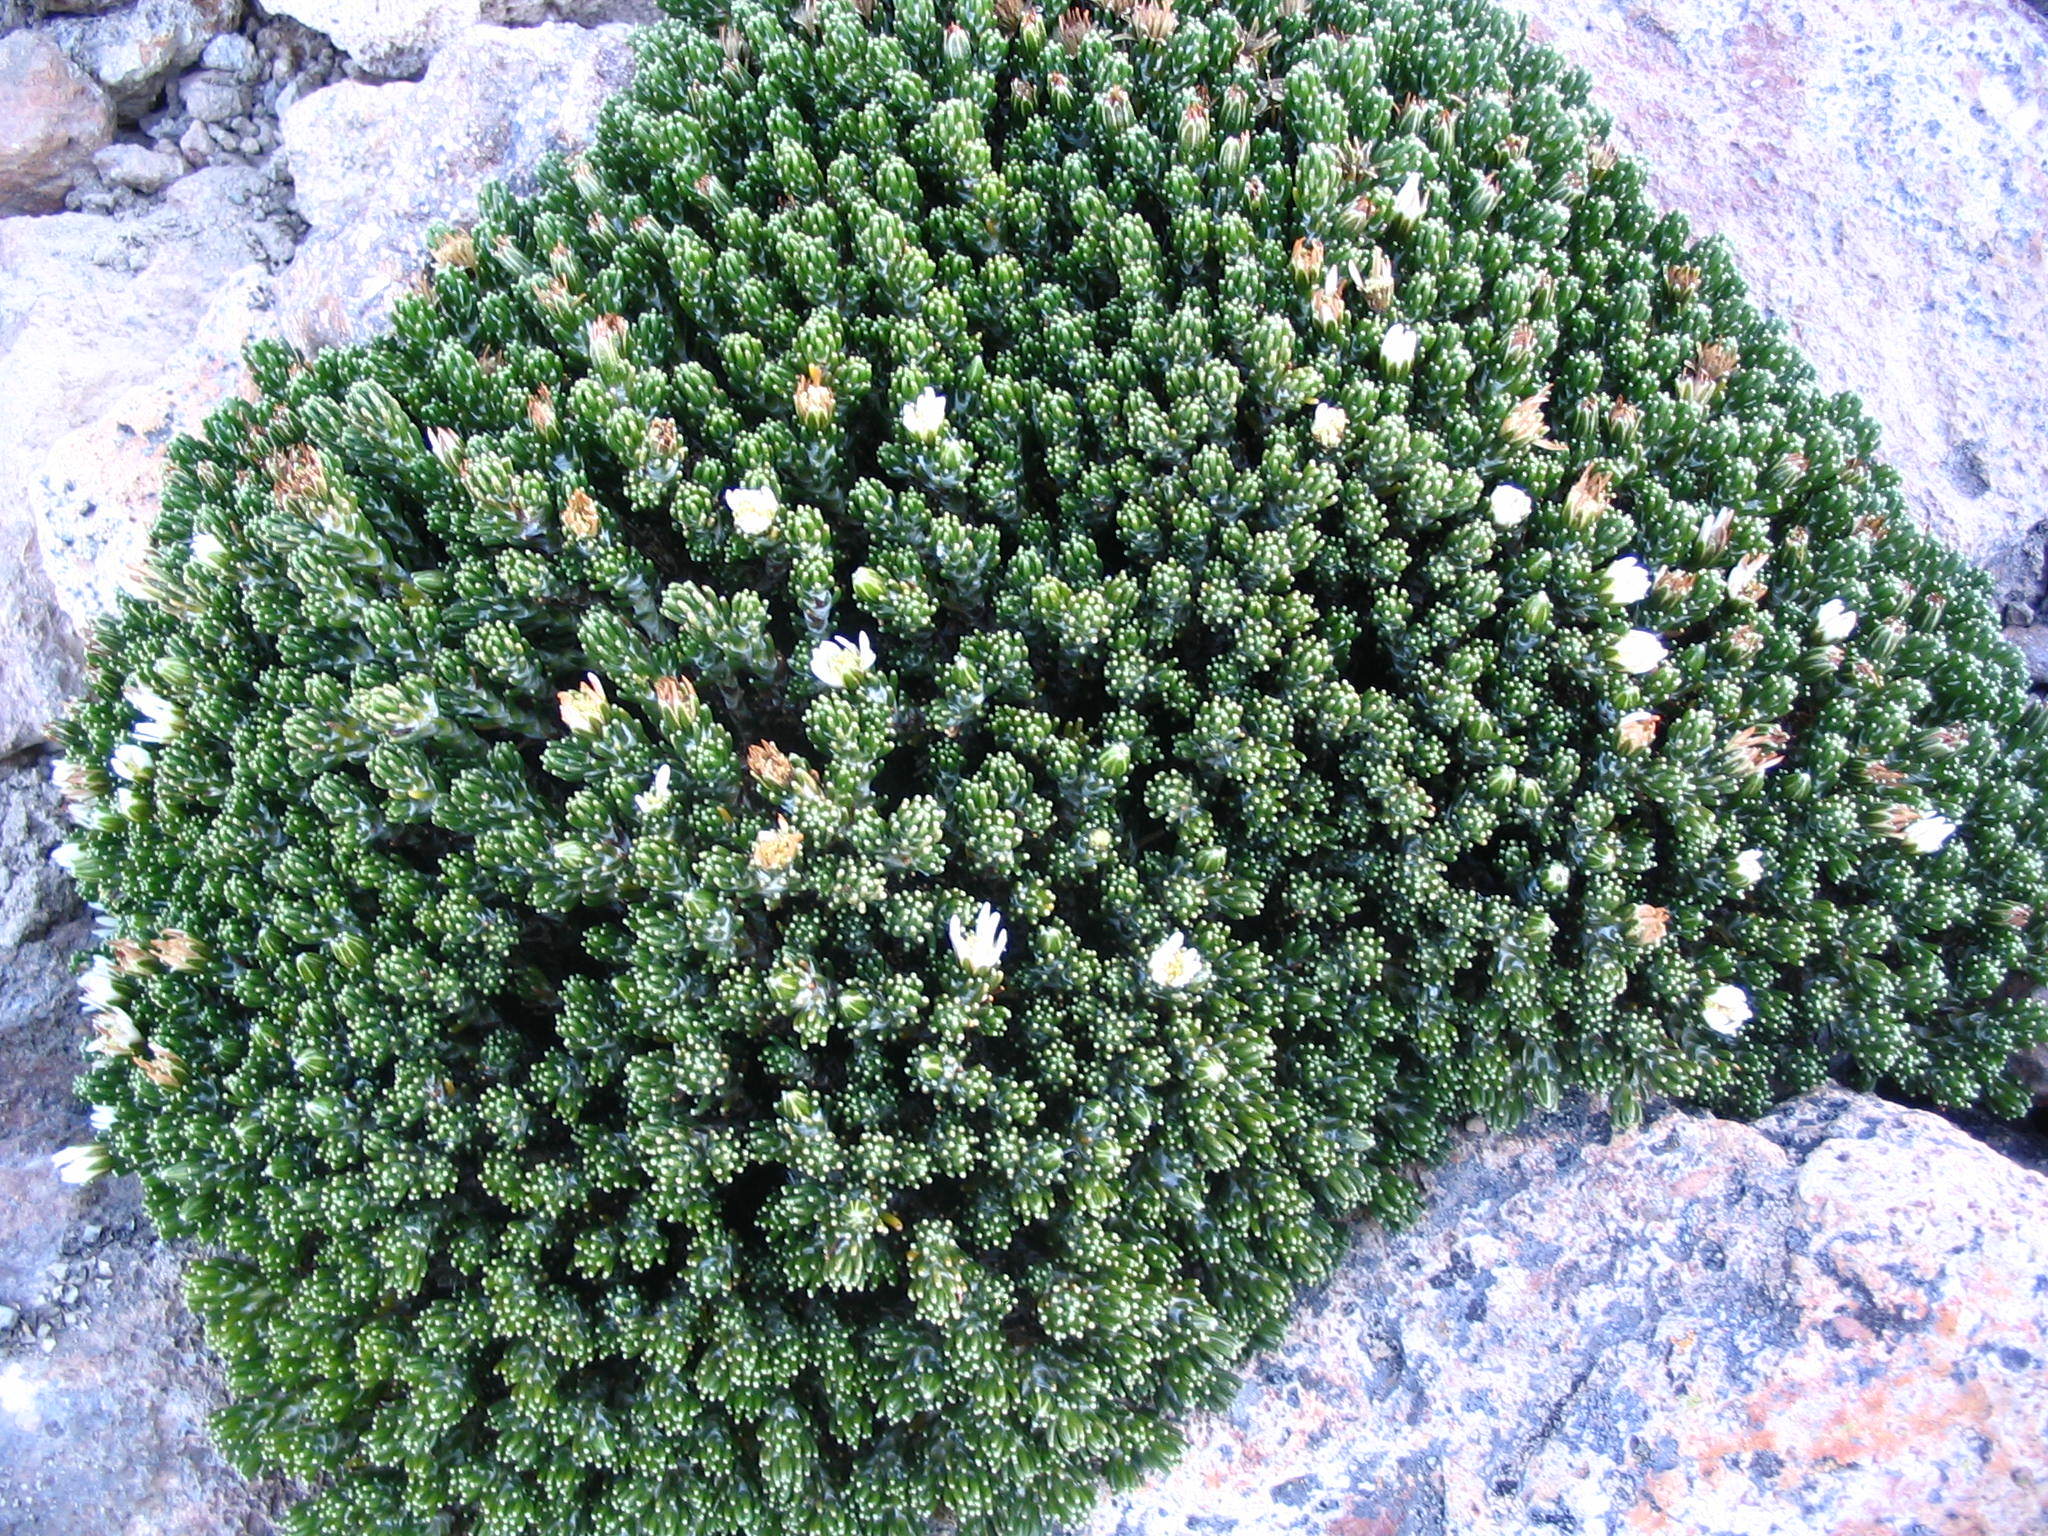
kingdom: Plantae
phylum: Tracheophyta
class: Magnoliopsida
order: Asterales
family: Asteraceae
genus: Werneria
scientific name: Werneria poposa
